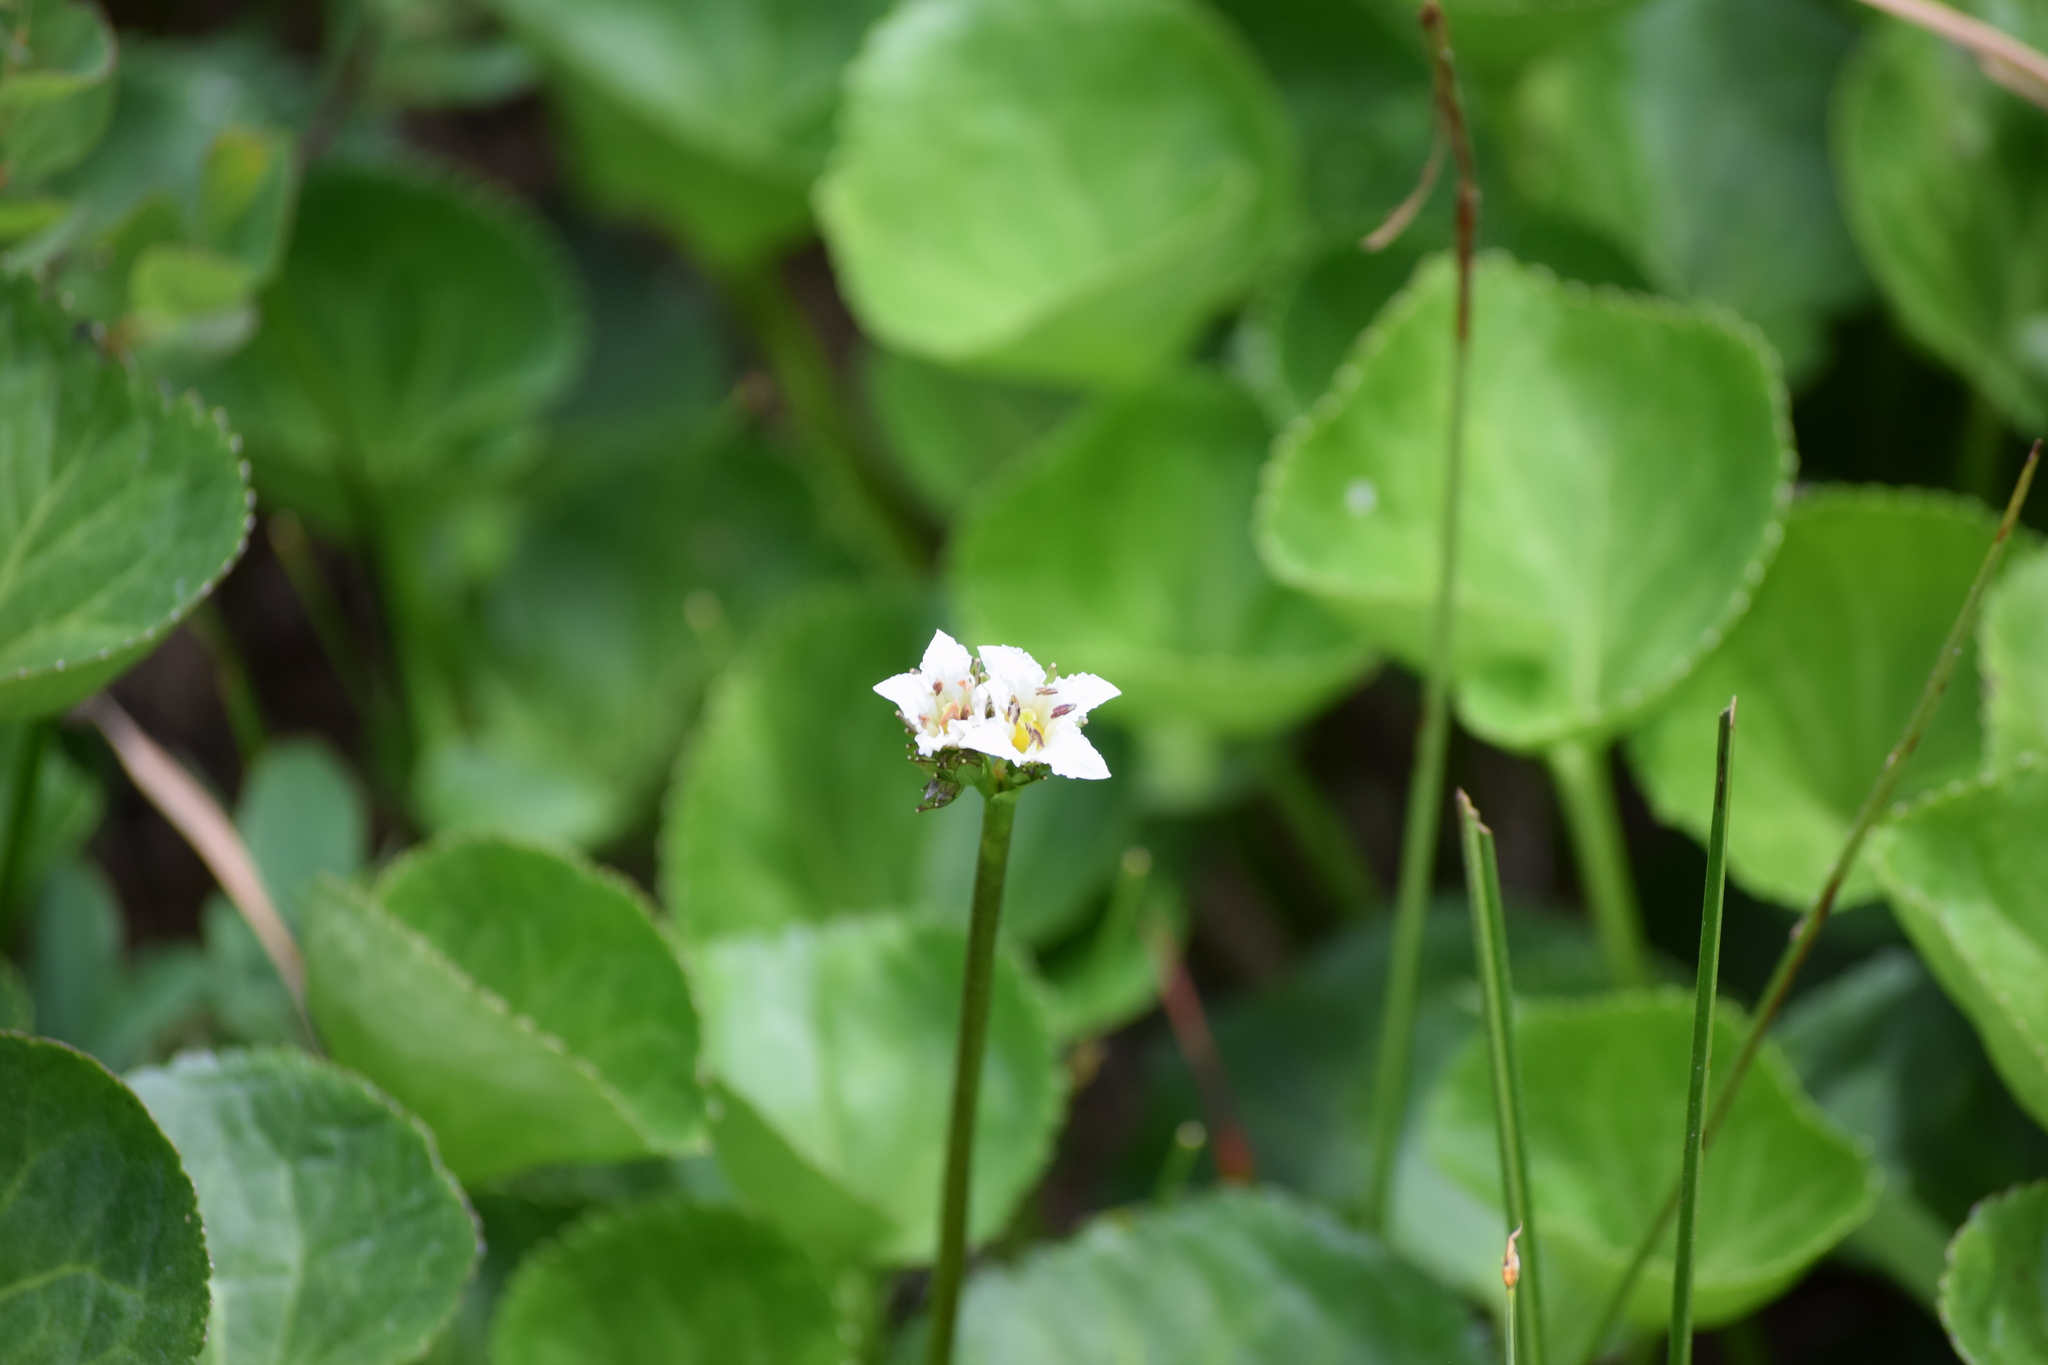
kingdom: Plantae
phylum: Tracheophyta
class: Magnoliopsida
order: Asterales
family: Menyanthaceae
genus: Nephrophyllidium
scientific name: Nephrophyllidium crista-galli
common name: Deer-cabbage
